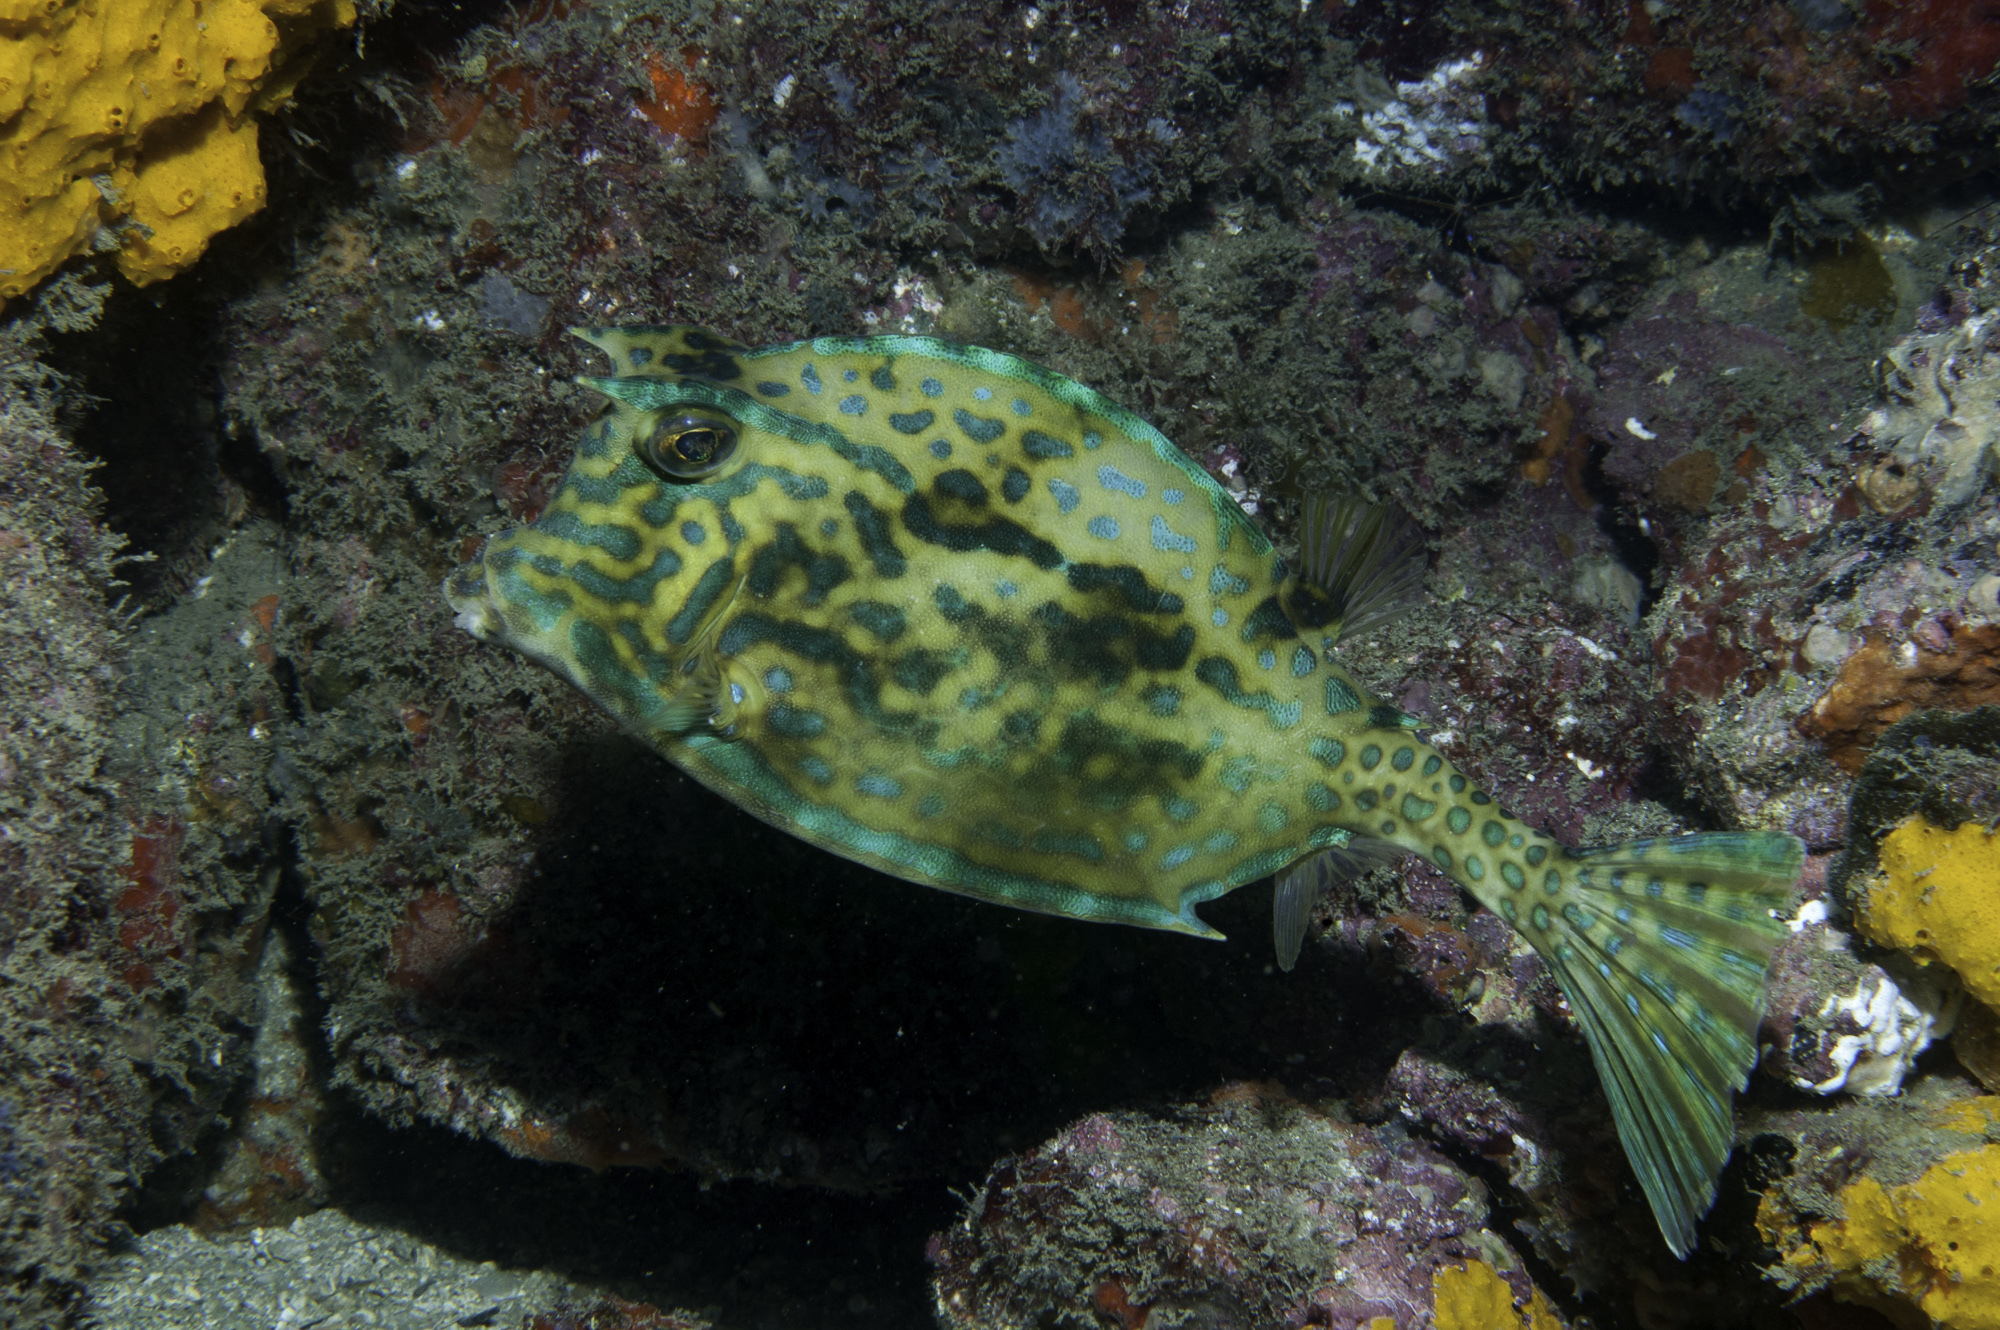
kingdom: Animalia
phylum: Chordata
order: Tetraodontiformes
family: Ostraciidae
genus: Acanthostracion
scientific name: Acanthostracion quadricornis
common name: Scrawled cowfish
